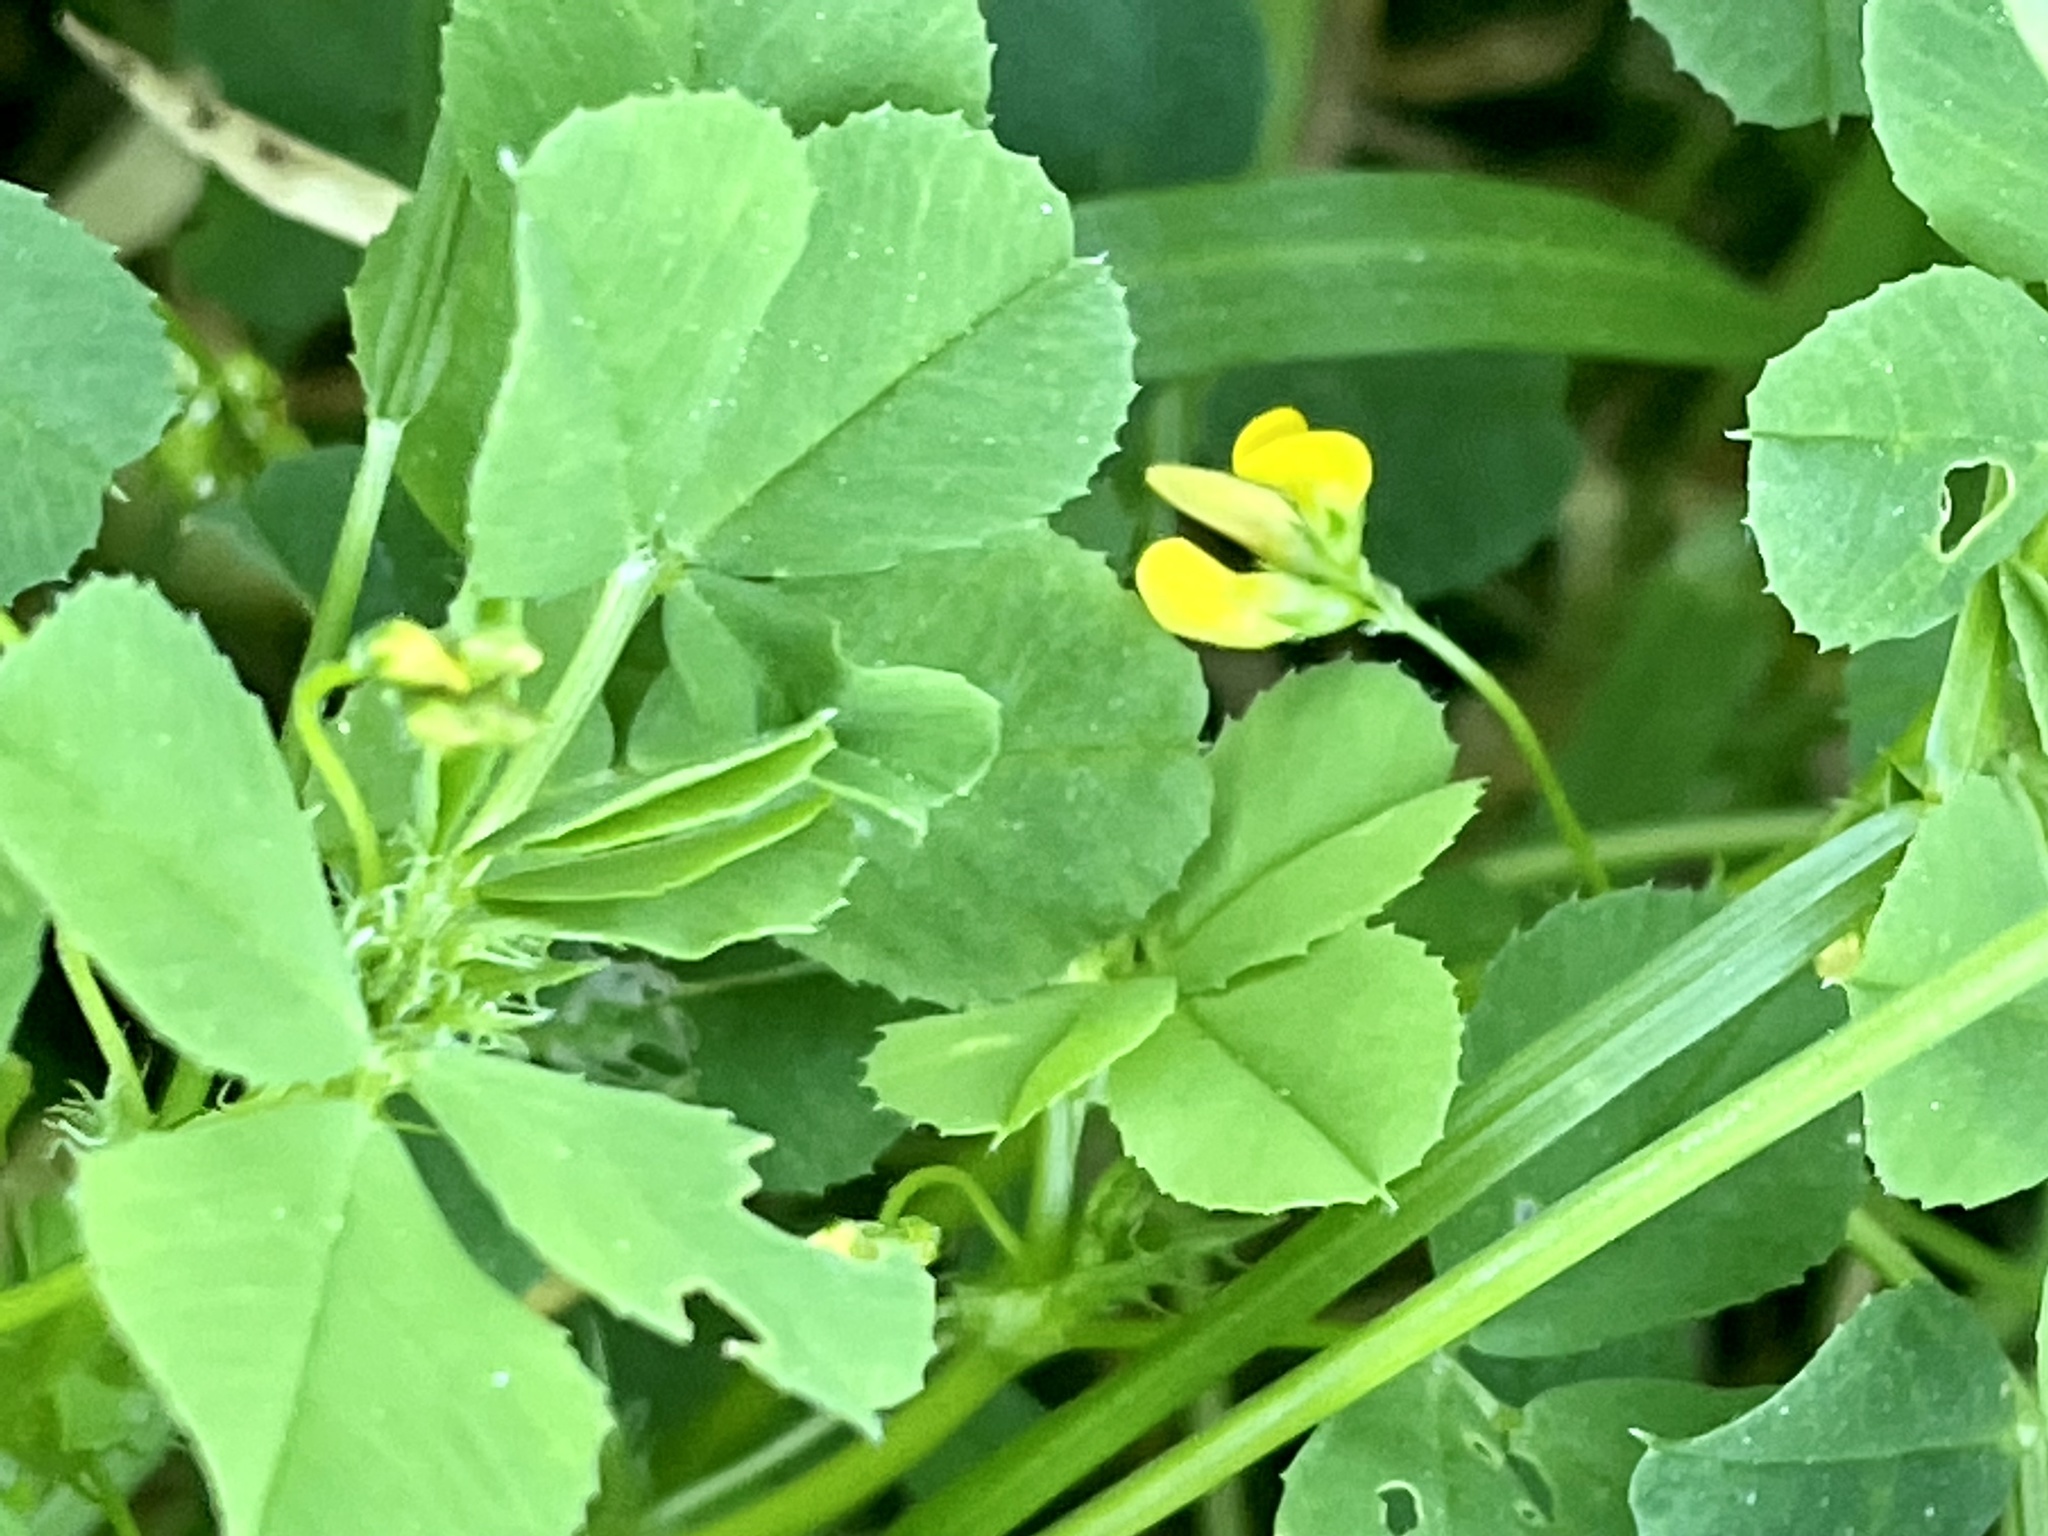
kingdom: Plantae
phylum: Tracheophyta
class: Magnoliopsida
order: Fabales
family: Fabaceae
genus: Medicago
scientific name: Medicago polymorpha
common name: Burclover
